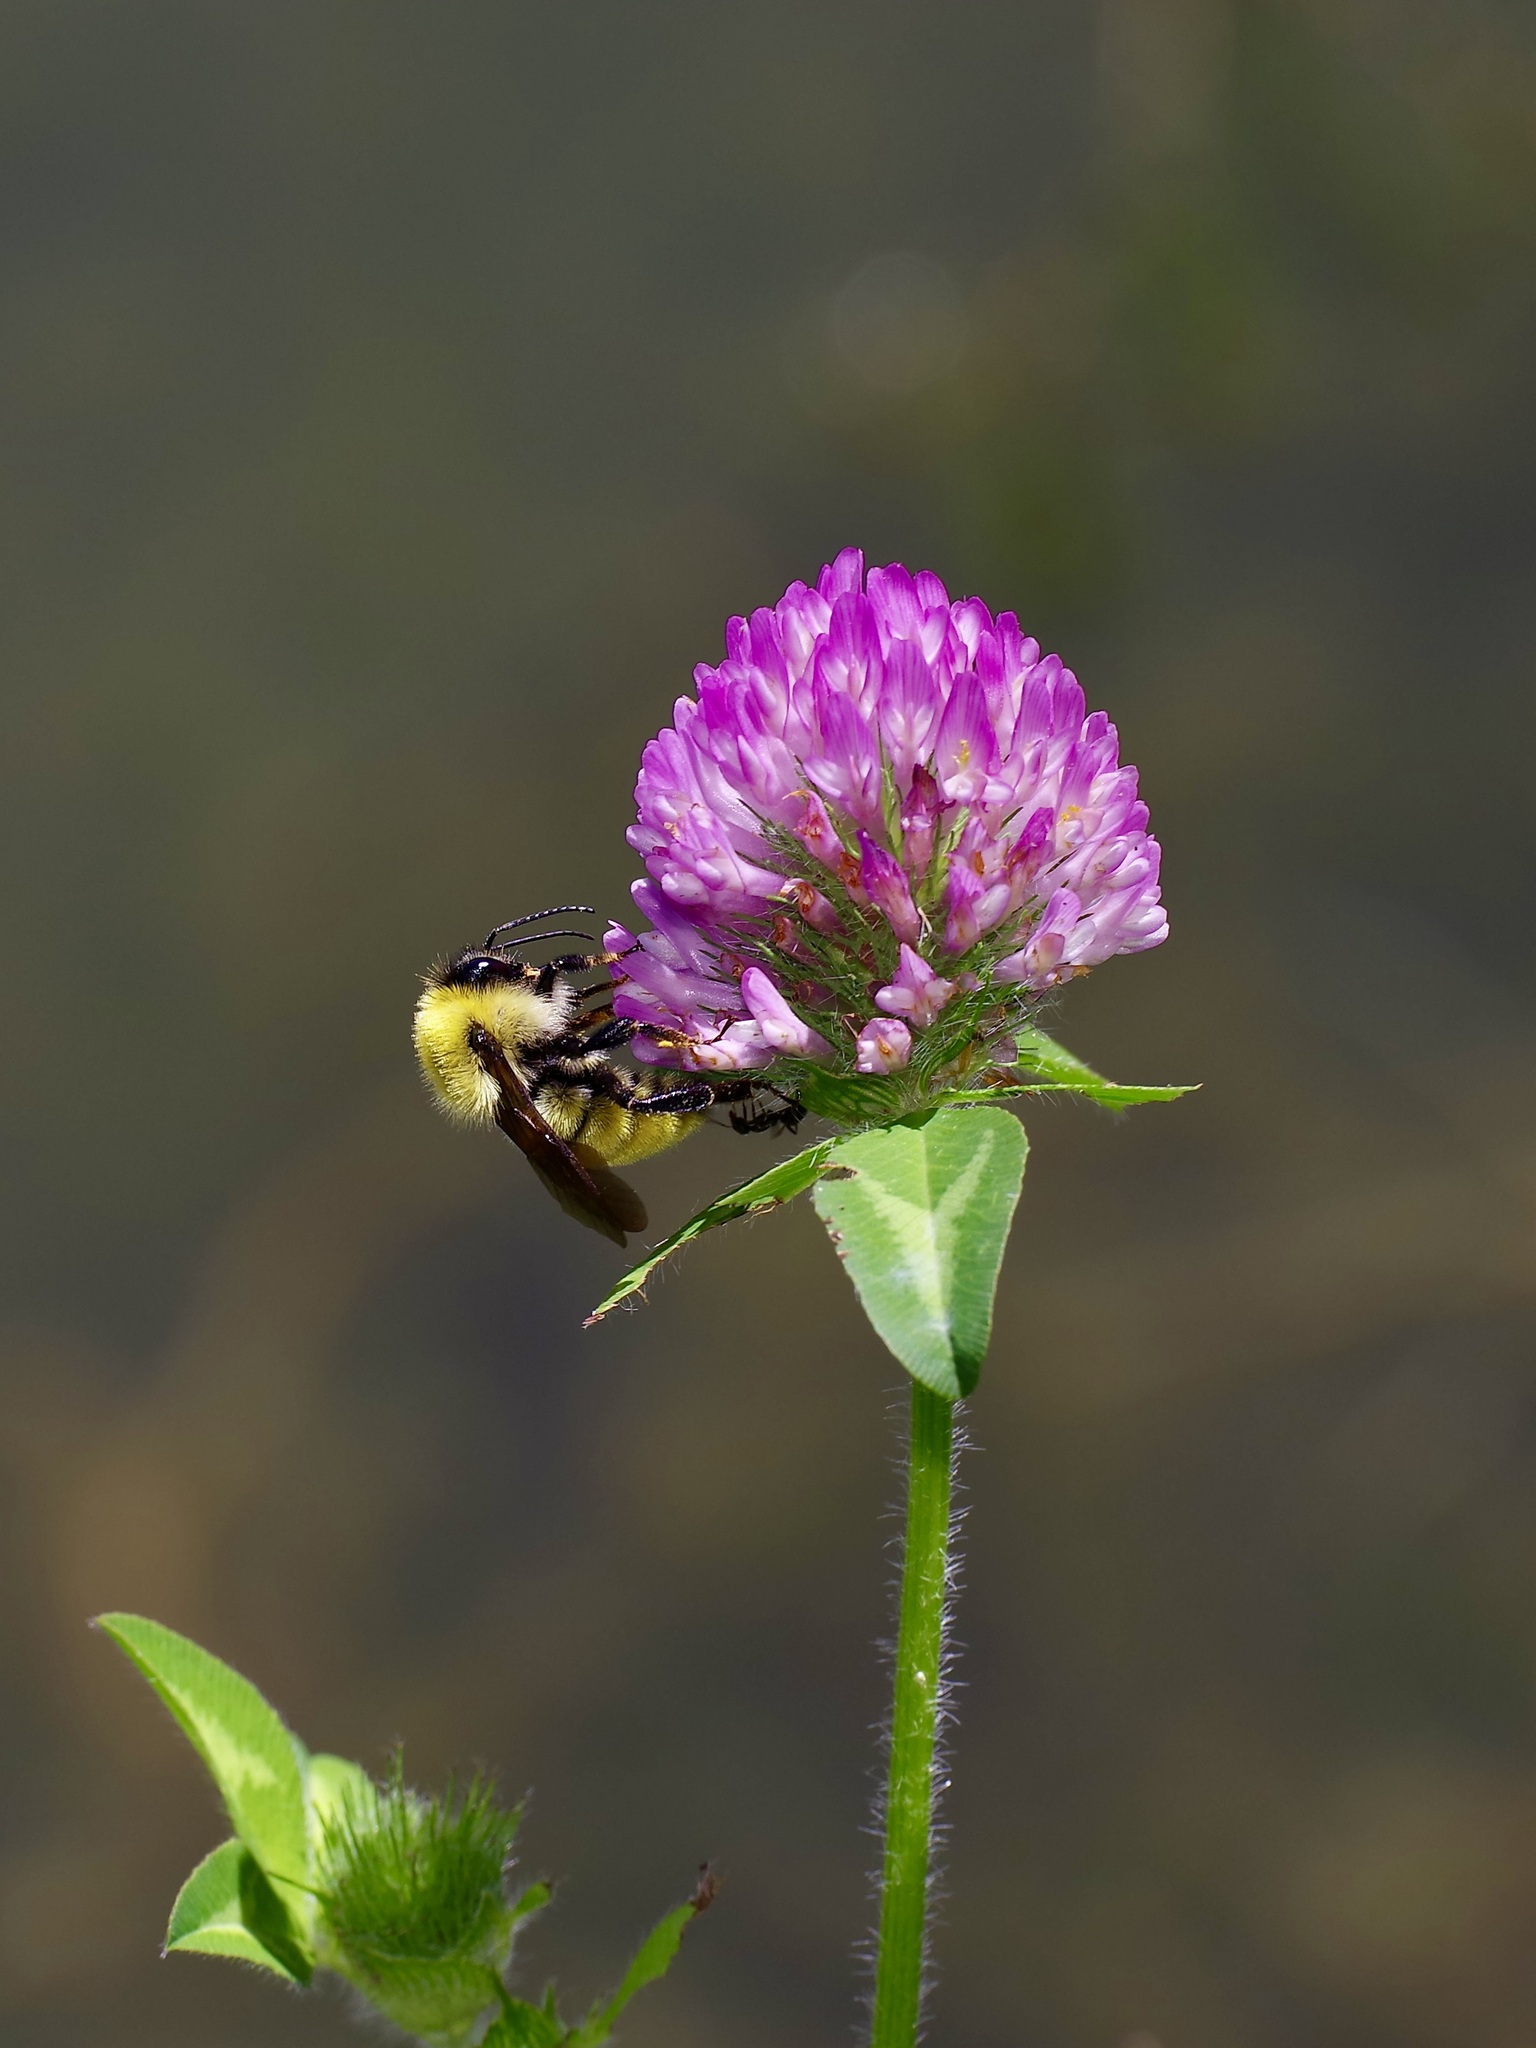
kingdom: Animalia
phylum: Arthropoda
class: Insecta
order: Hymenoptera
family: Apidae
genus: Bombus
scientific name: Bombus fervidus
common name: Yellow bumble bee
